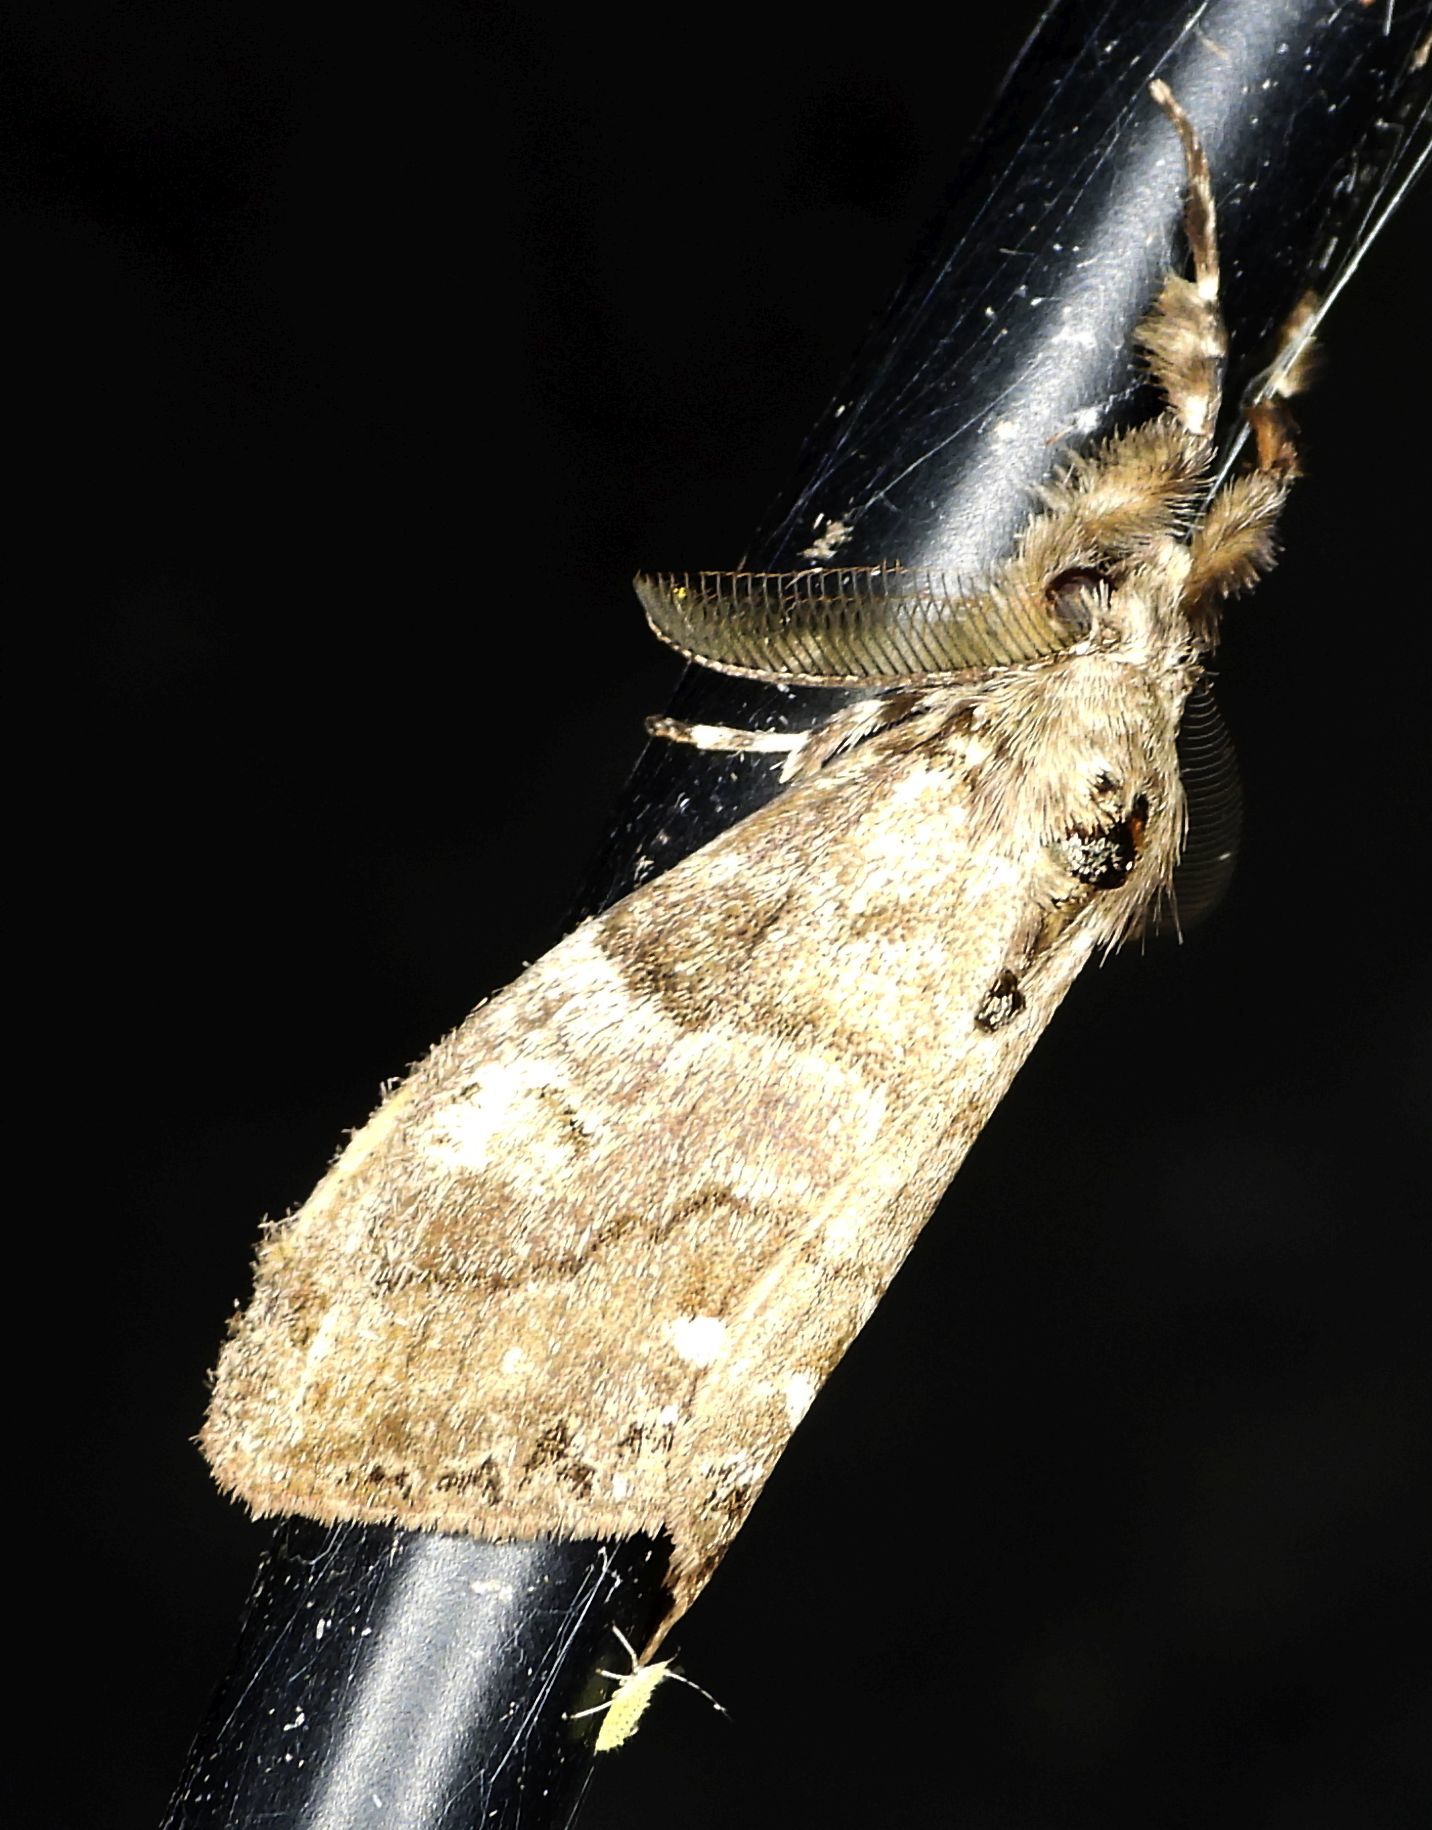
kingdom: Animalia
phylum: Arthropoda
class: Insecta
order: Lepidoptera
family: Erebidae
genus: Orgyia
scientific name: Orgyia leucostigma
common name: White-marked tussock moth
